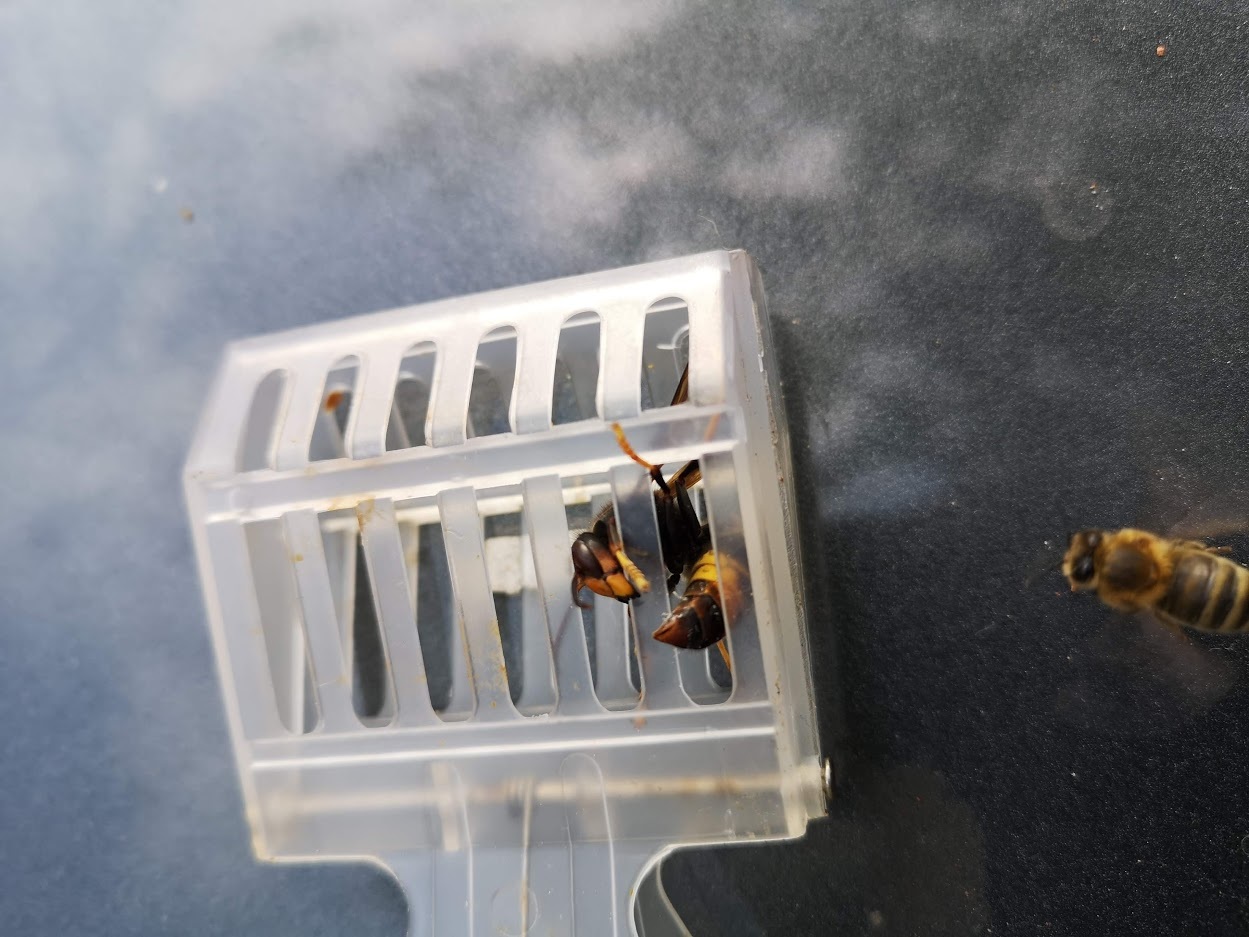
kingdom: Animalia
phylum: Arthropoda
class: Insecta
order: Hymenoptera
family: Vespidae
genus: Vespa
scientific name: Vespa velutina
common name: Asian hornet
